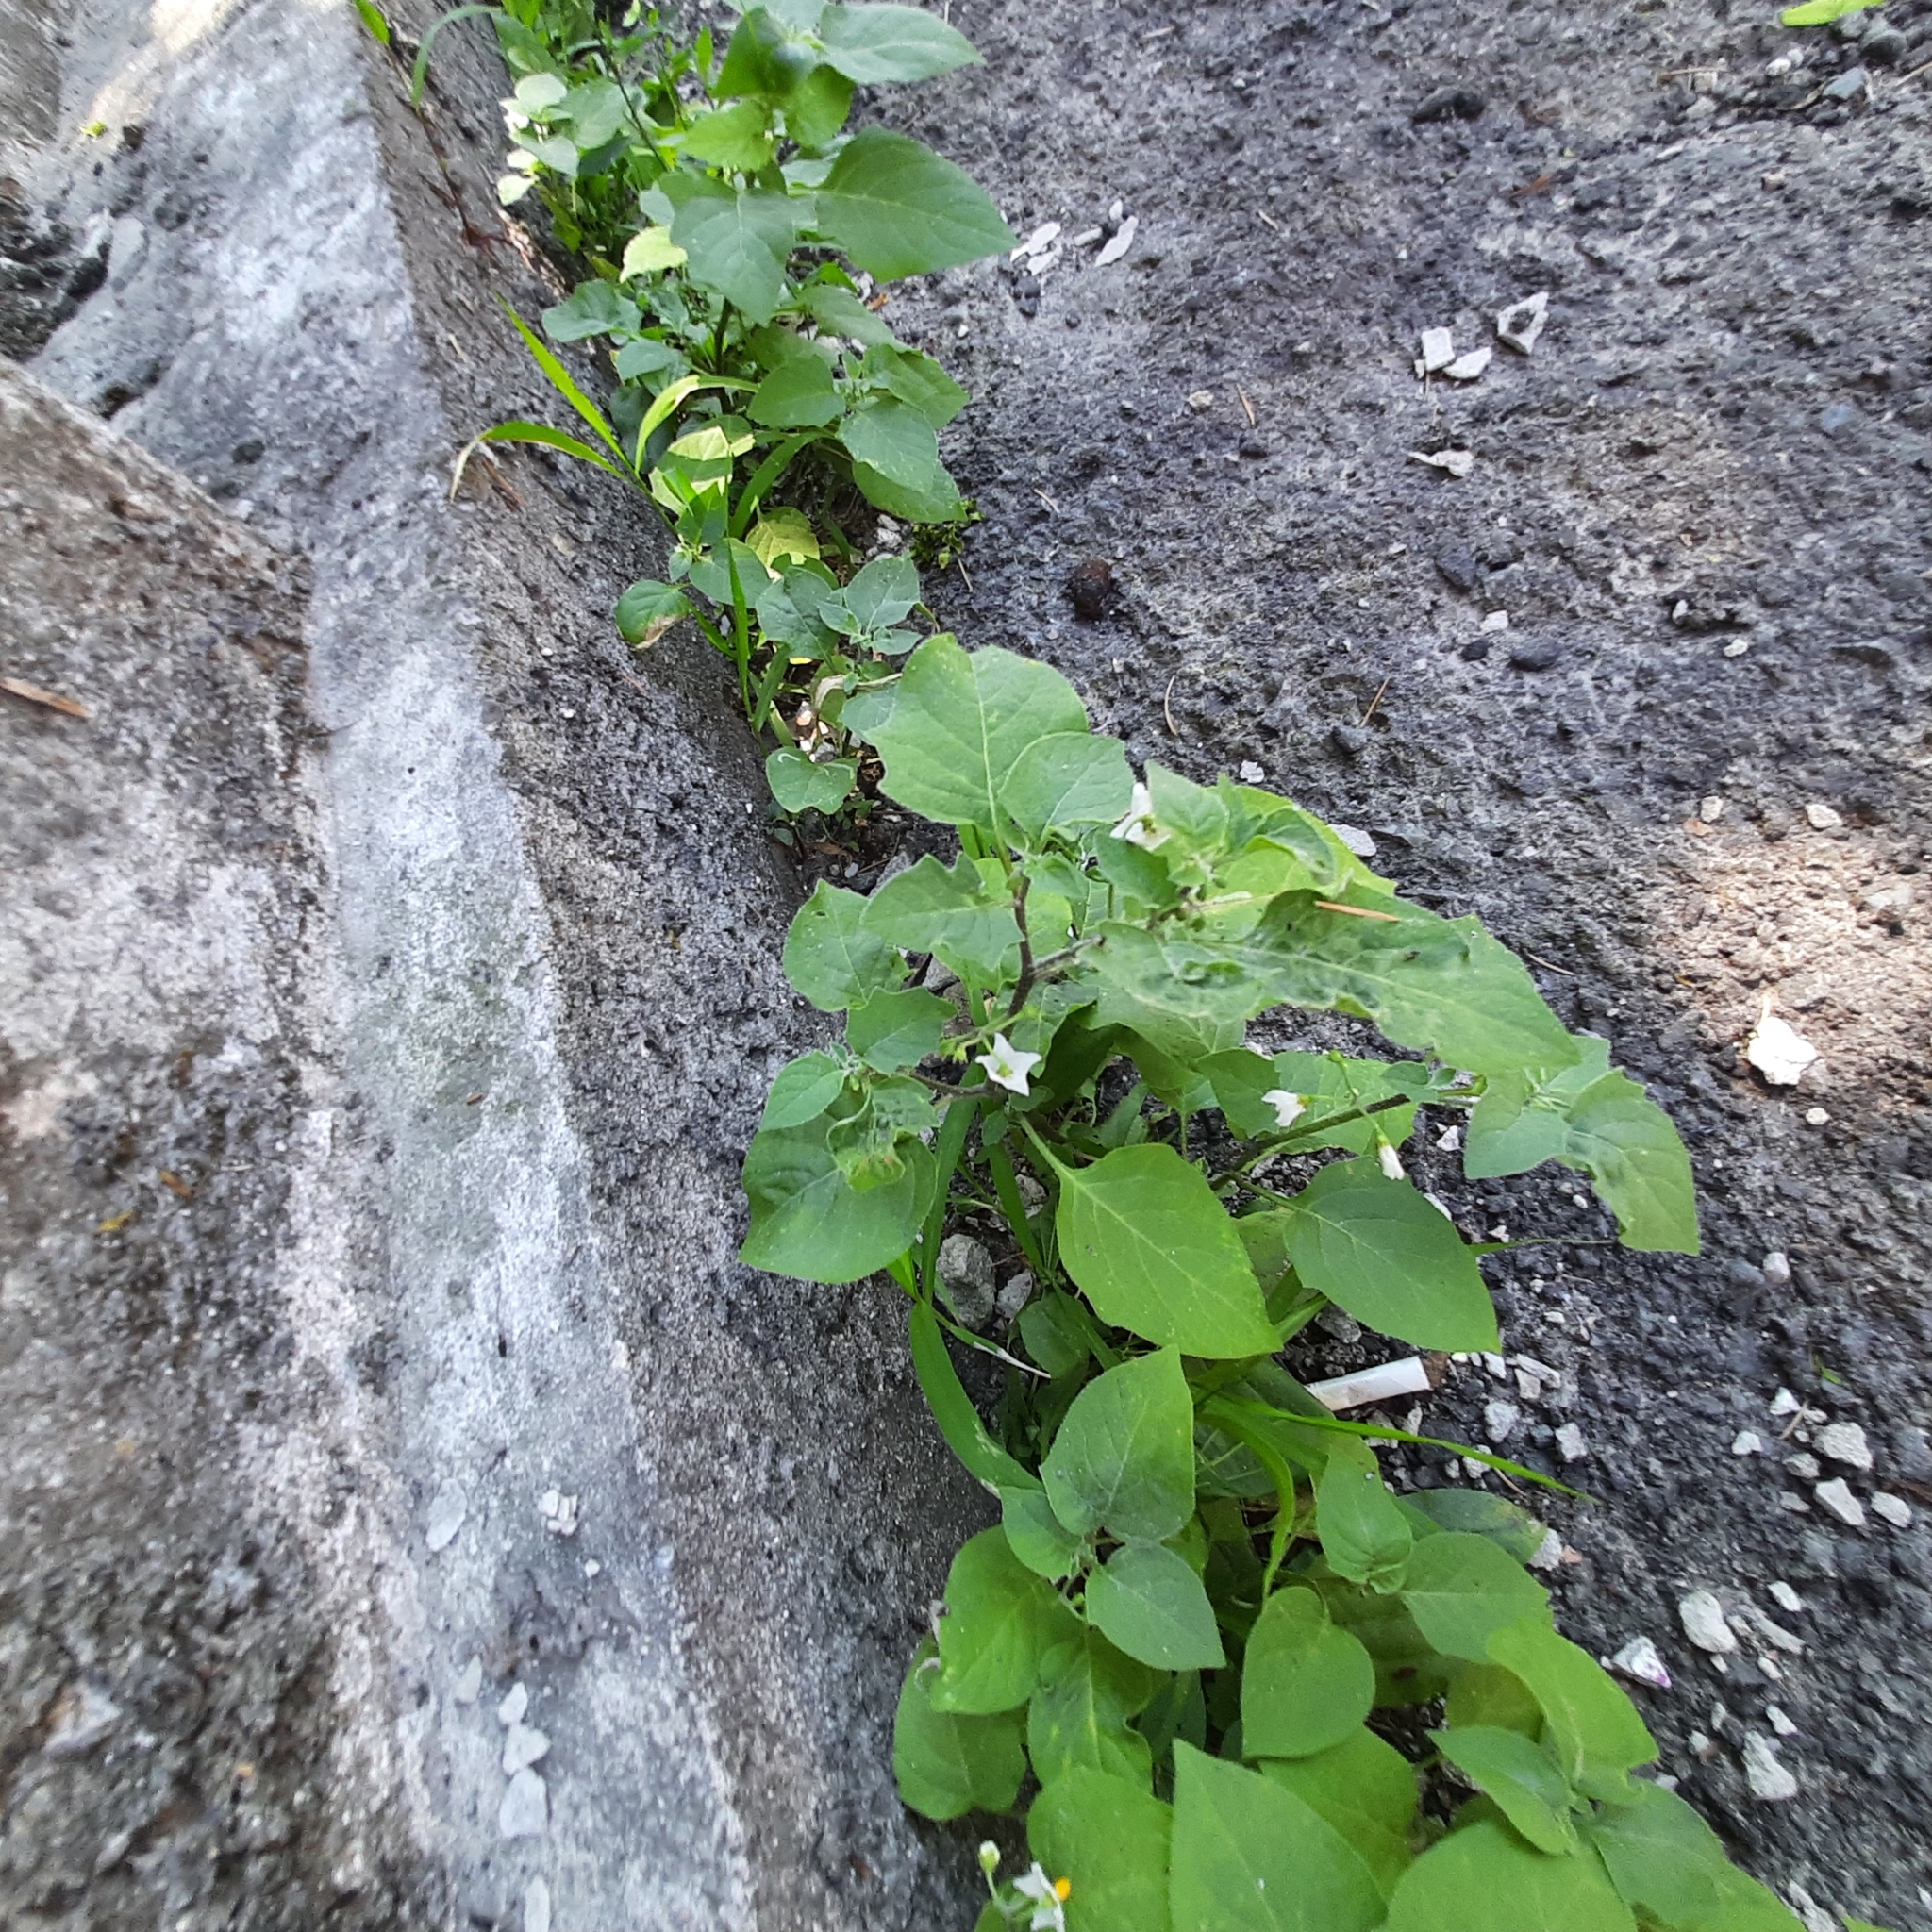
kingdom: Plantae
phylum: Tracheophyta
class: Magnoliopsida
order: Solanales
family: Solanaceae
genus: Solanum
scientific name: Solanum nigrum
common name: Black nightshade
